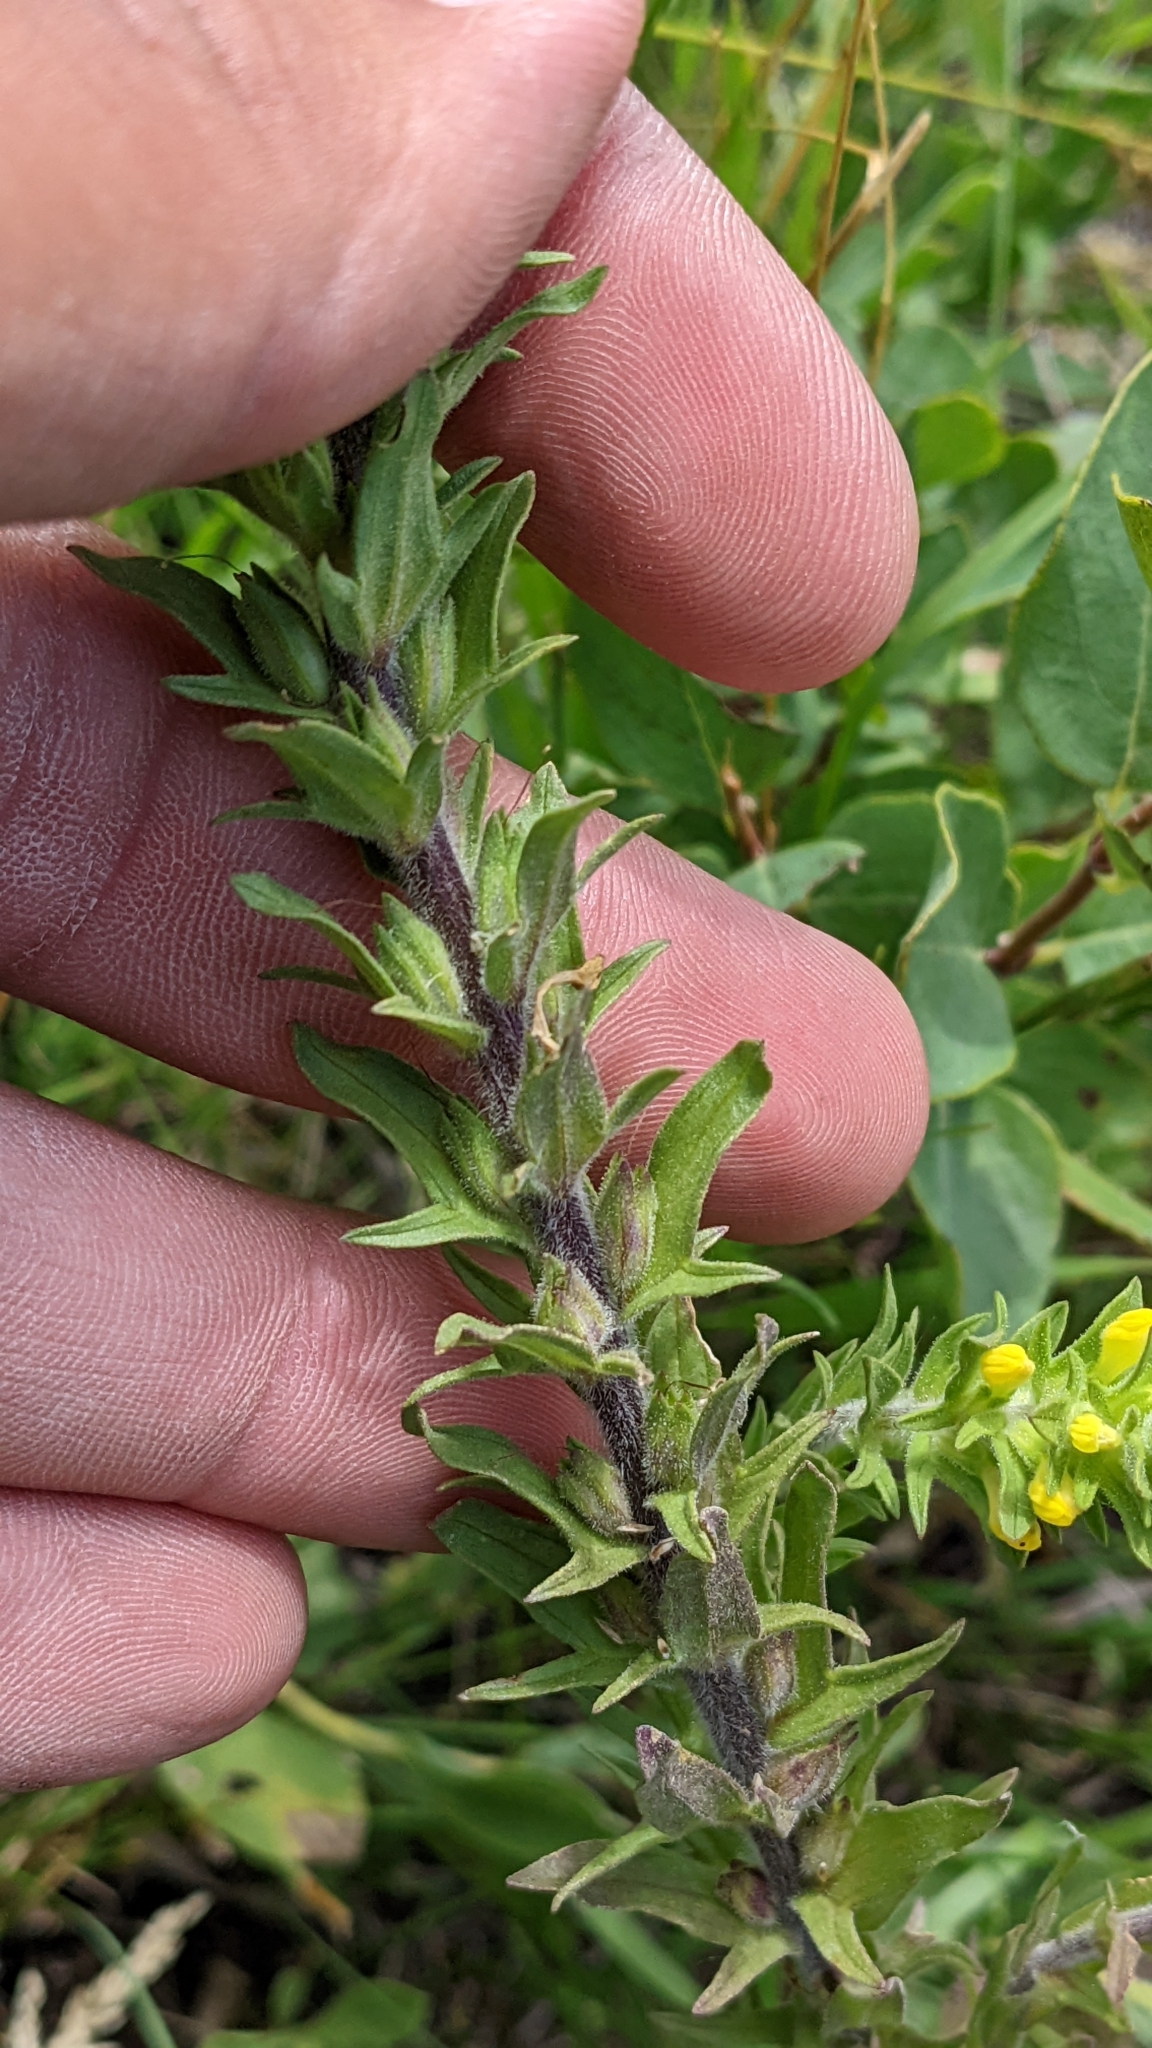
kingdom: Plantae
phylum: Tracheophyta
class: Magnoliopsida
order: Lamiales
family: Orobanchaceae
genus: Orthocarpus
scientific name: Orthocarpus luteus
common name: Golden-tongue owl's-clover
